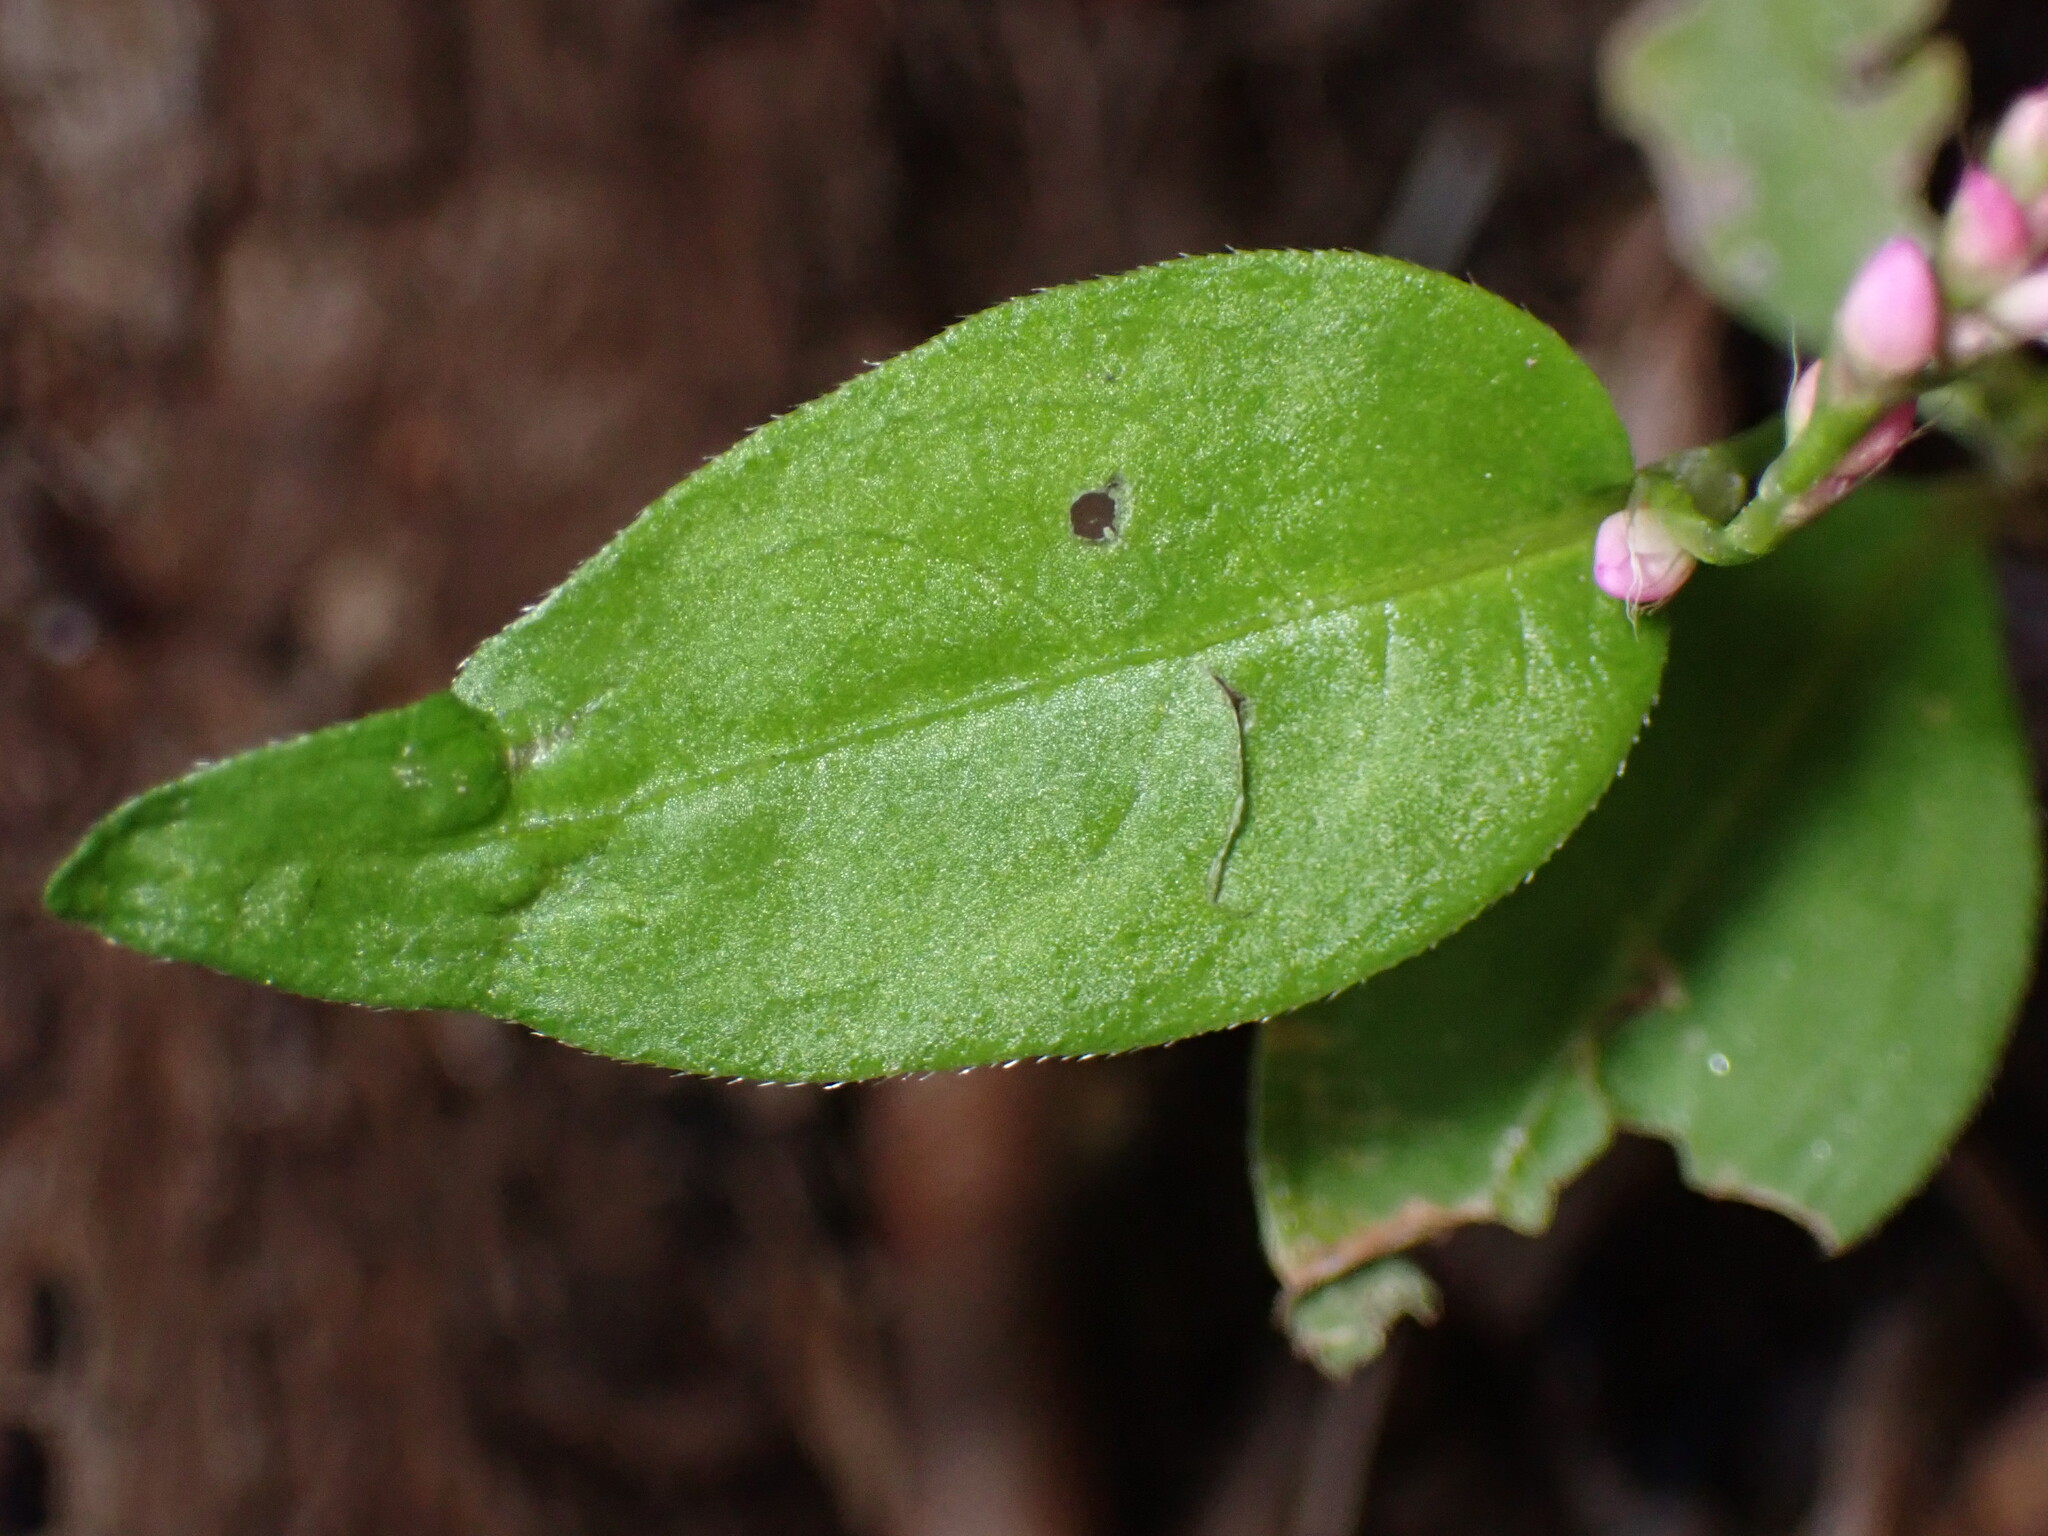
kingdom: Plantae
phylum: Tracheophyta
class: Magnoliopsida
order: Caryophyllales
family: Polygonaceae
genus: Persicaria
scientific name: Persicaria longiseta
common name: Bristly lady's-thumb
